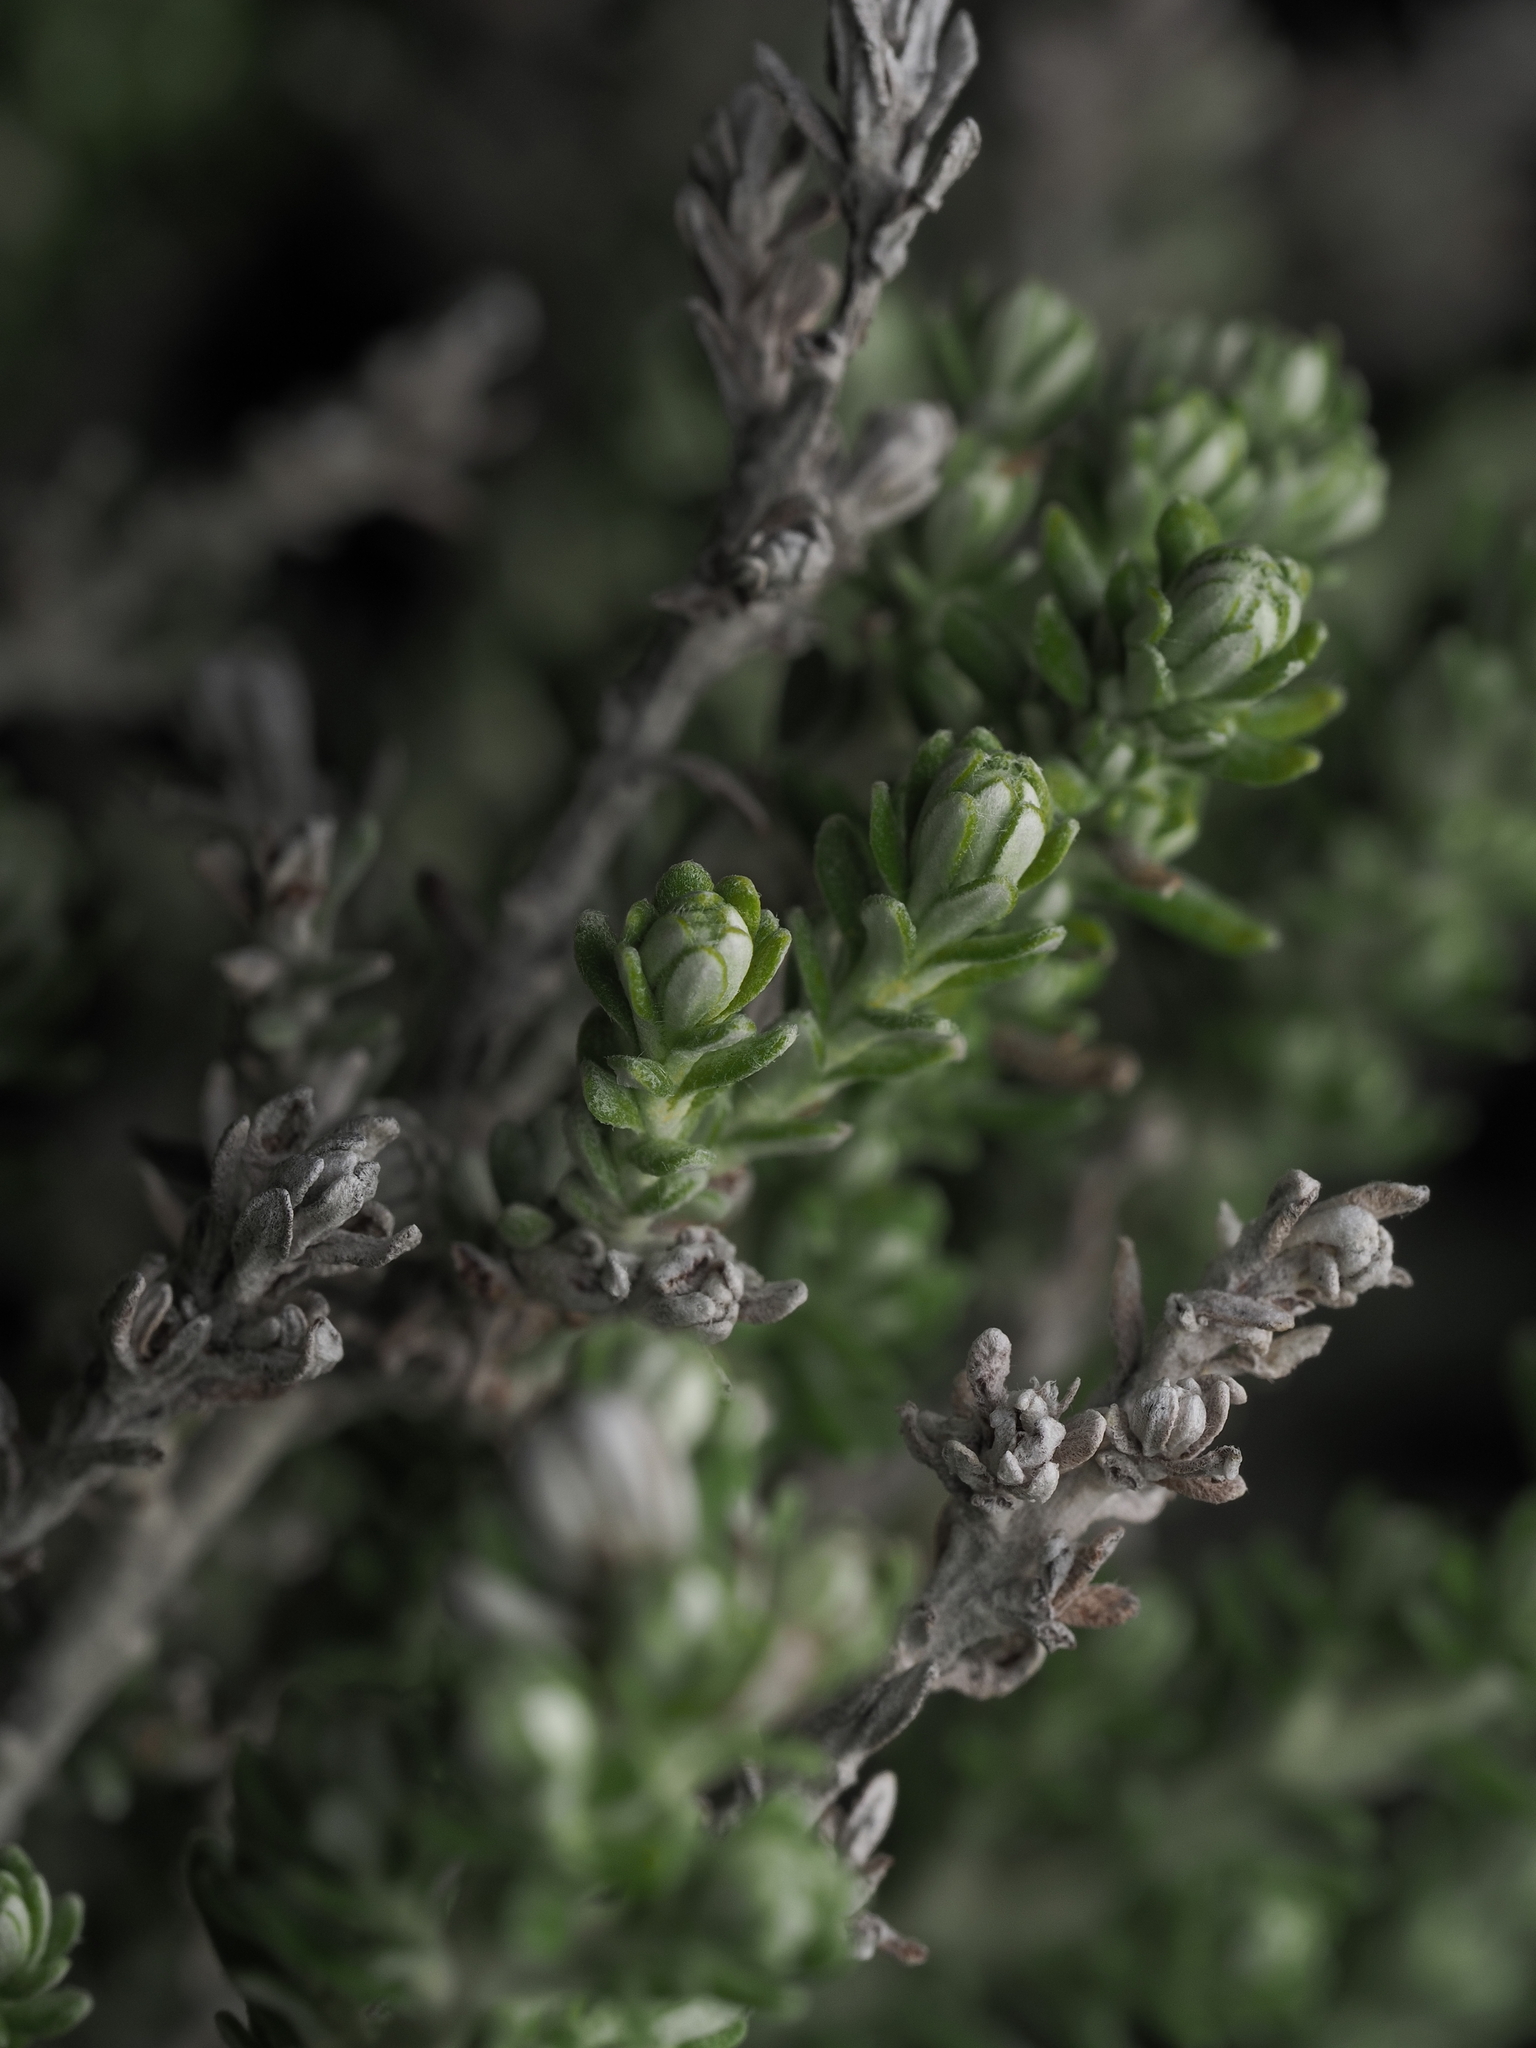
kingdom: Plantae
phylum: Tracheophyta
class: Magnoliopsida
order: Asterales
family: Asteraceae
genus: Ozothamnus
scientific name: Ozothamnus leptophyllus
